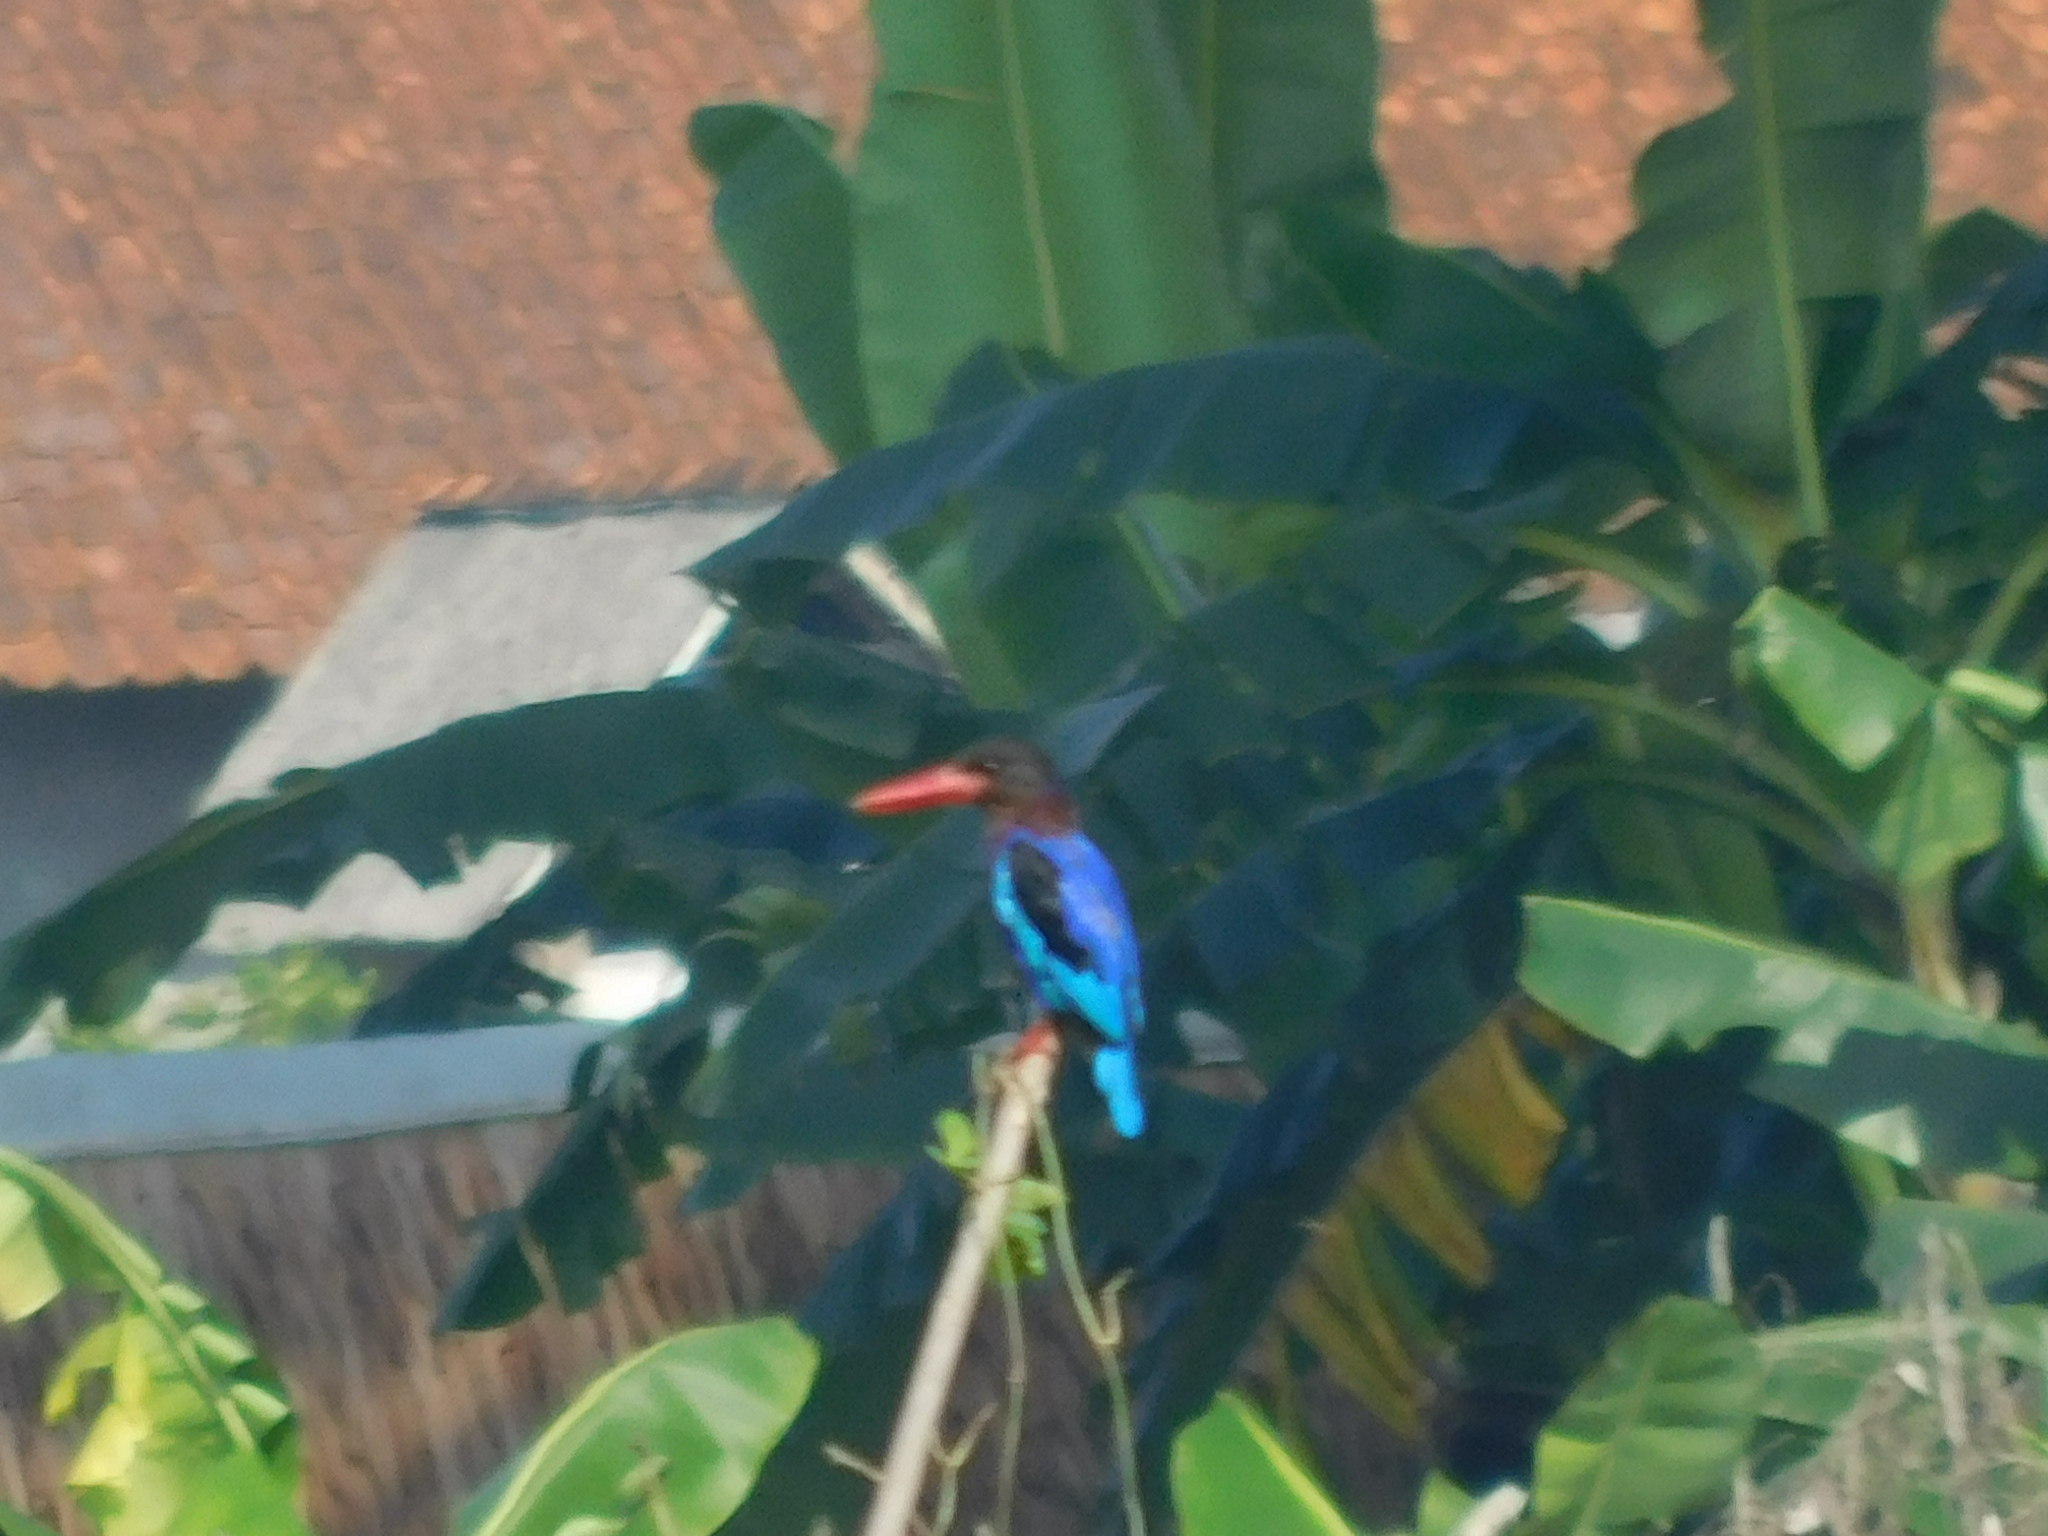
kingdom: Animalia
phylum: Chordata
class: Aves
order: Coraciiformes
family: Alcedinidae
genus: Halcyon
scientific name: Halcyon cyanoventris
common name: Javan kingfisher
